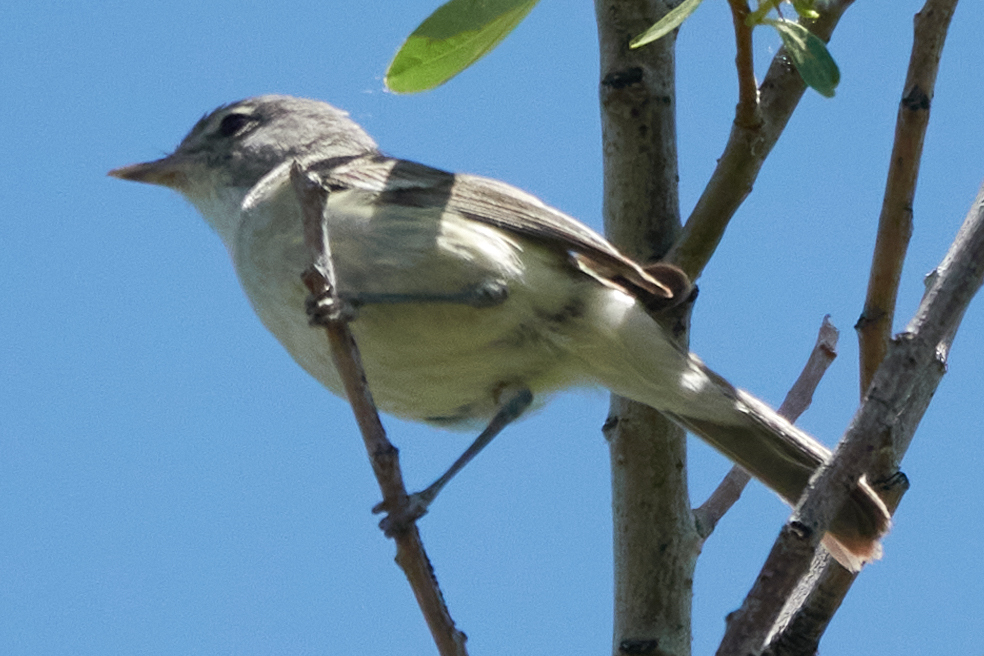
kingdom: Animalia
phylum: Chordata
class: Aves
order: Passeriformes
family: Vireonidae
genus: Vireo
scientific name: Vireo bellii
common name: Bell's vireo
